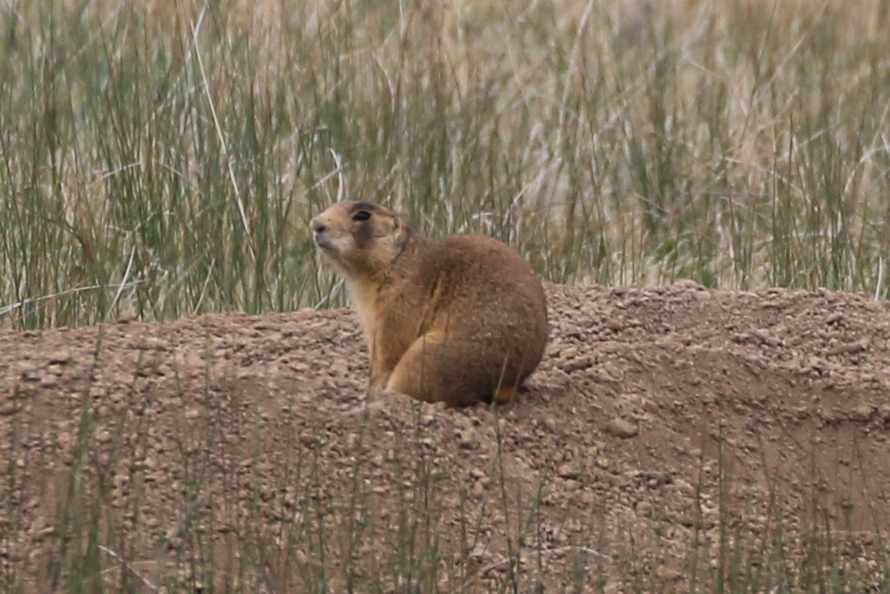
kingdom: Animalia
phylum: Chordata
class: Mammalia
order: Rodentia
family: Sciuridae
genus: Cynomys
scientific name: Cynomys parvidens
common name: Utah prairie dog
